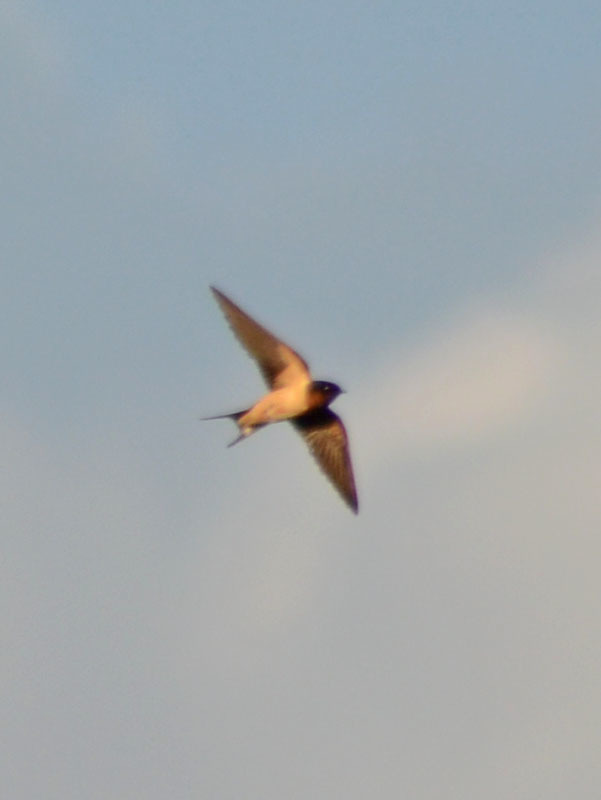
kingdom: Animalia
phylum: Chordata
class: Aves
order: Passeriformes
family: Hirundinidae
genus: Hirundo
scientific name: Hirundo rustica
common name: Barn swallow
